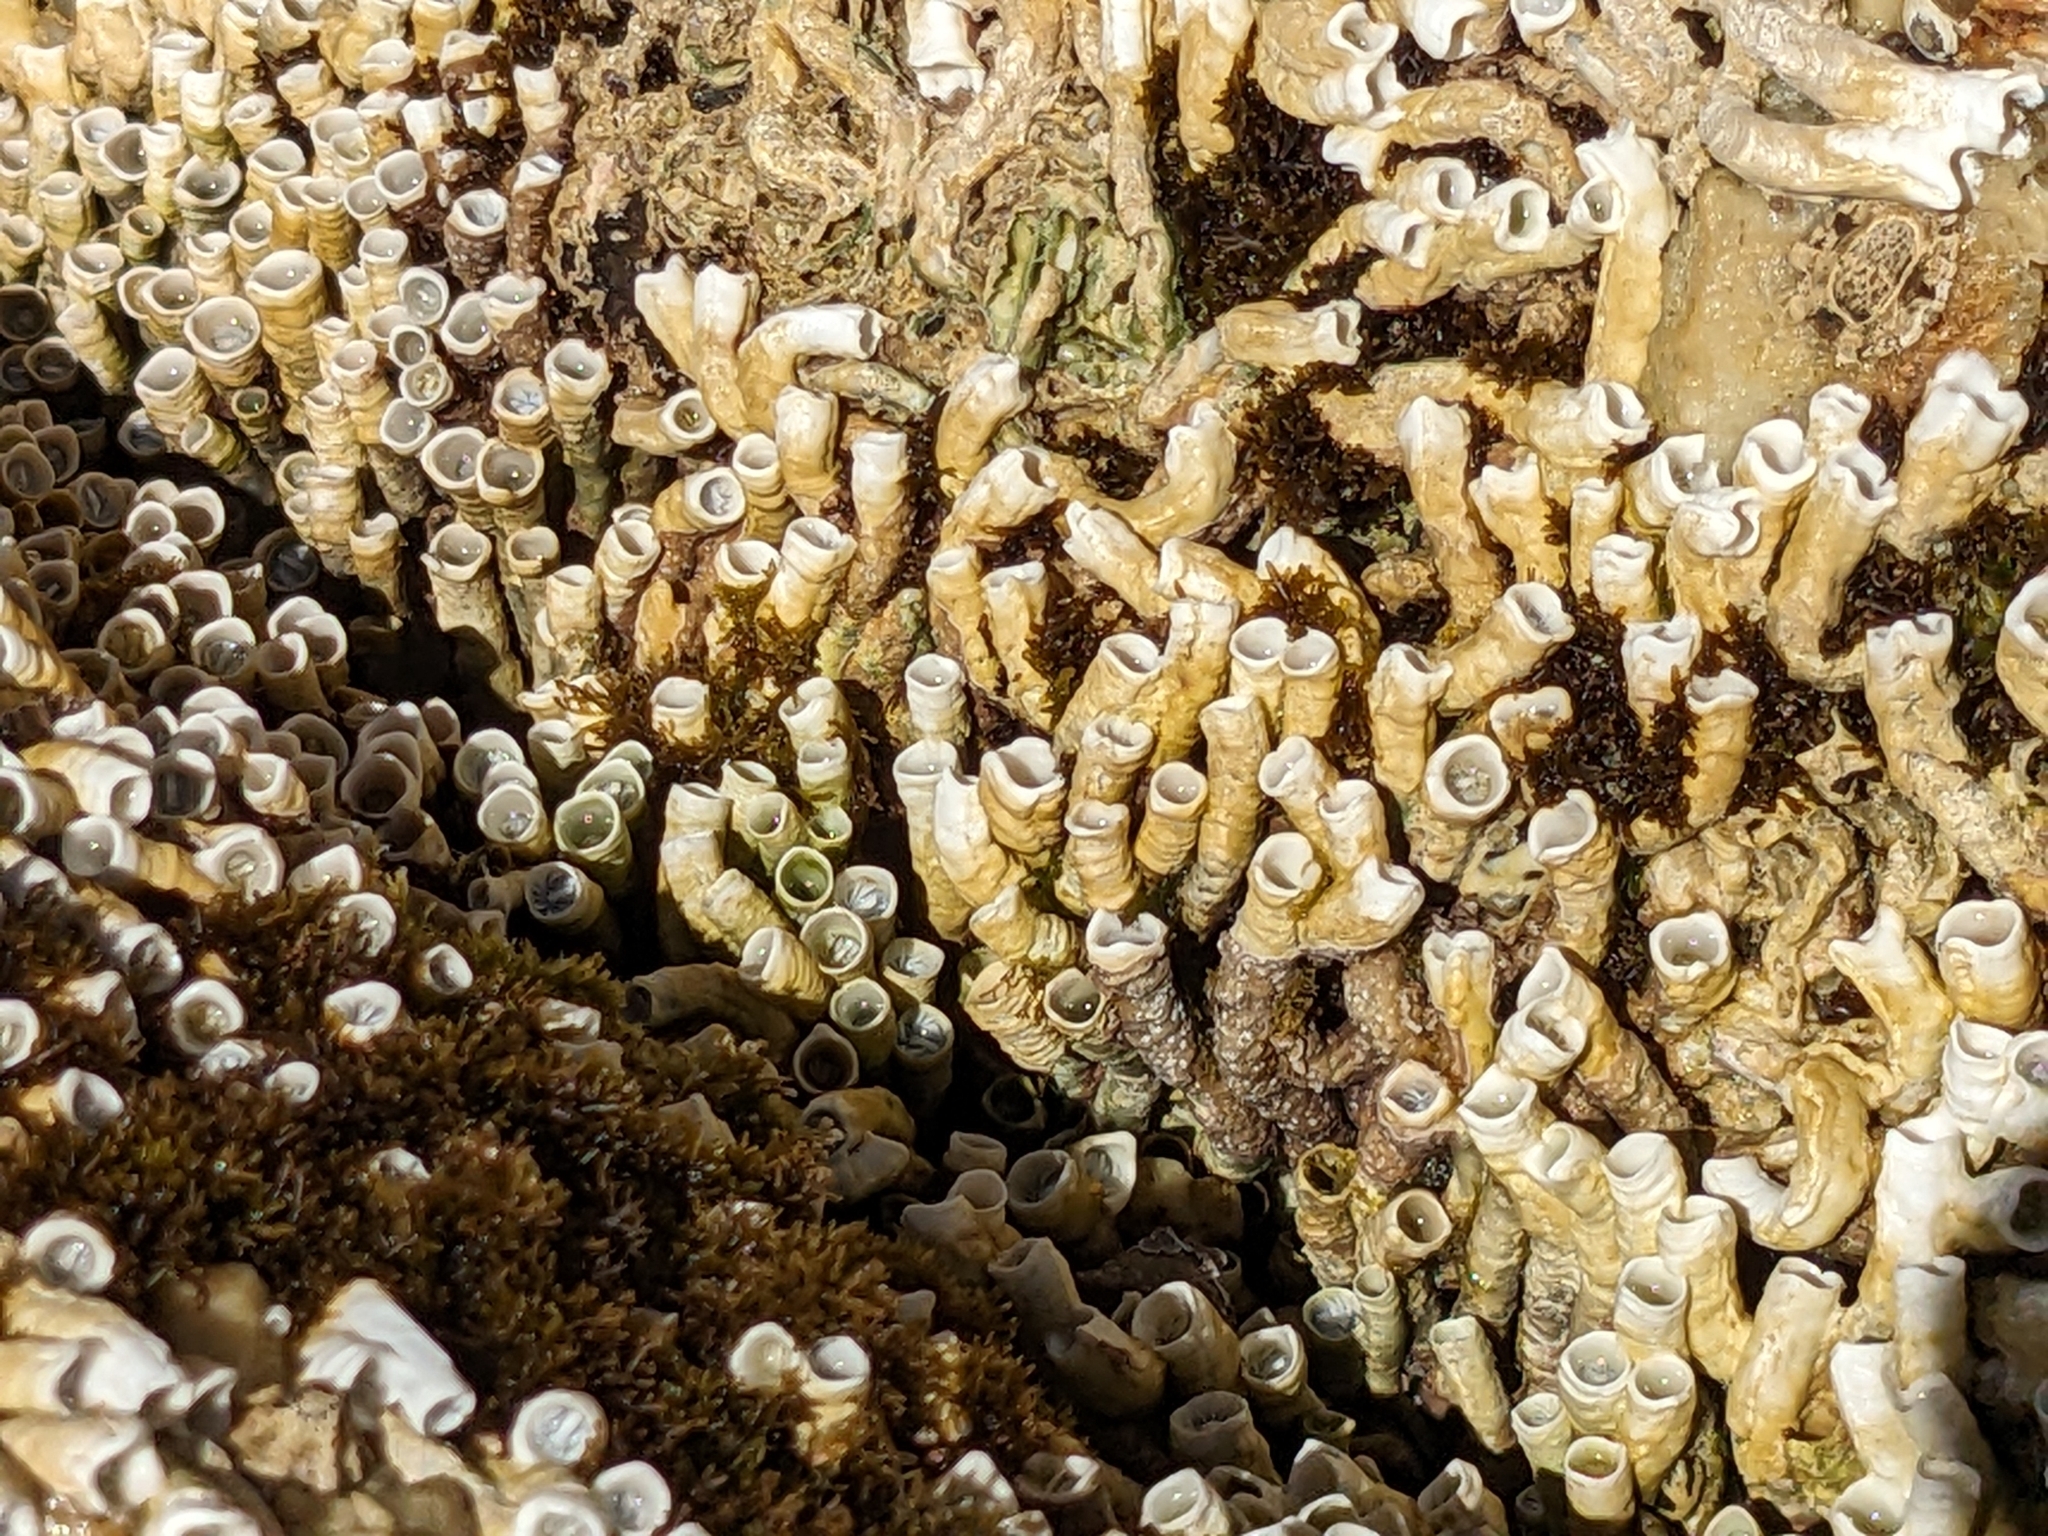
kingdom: Animalia
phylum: Annelida
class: Polychaeta
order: Sabellida
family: Serpulidae
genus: Galeolaria
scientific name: Galeolaria caespitosa
